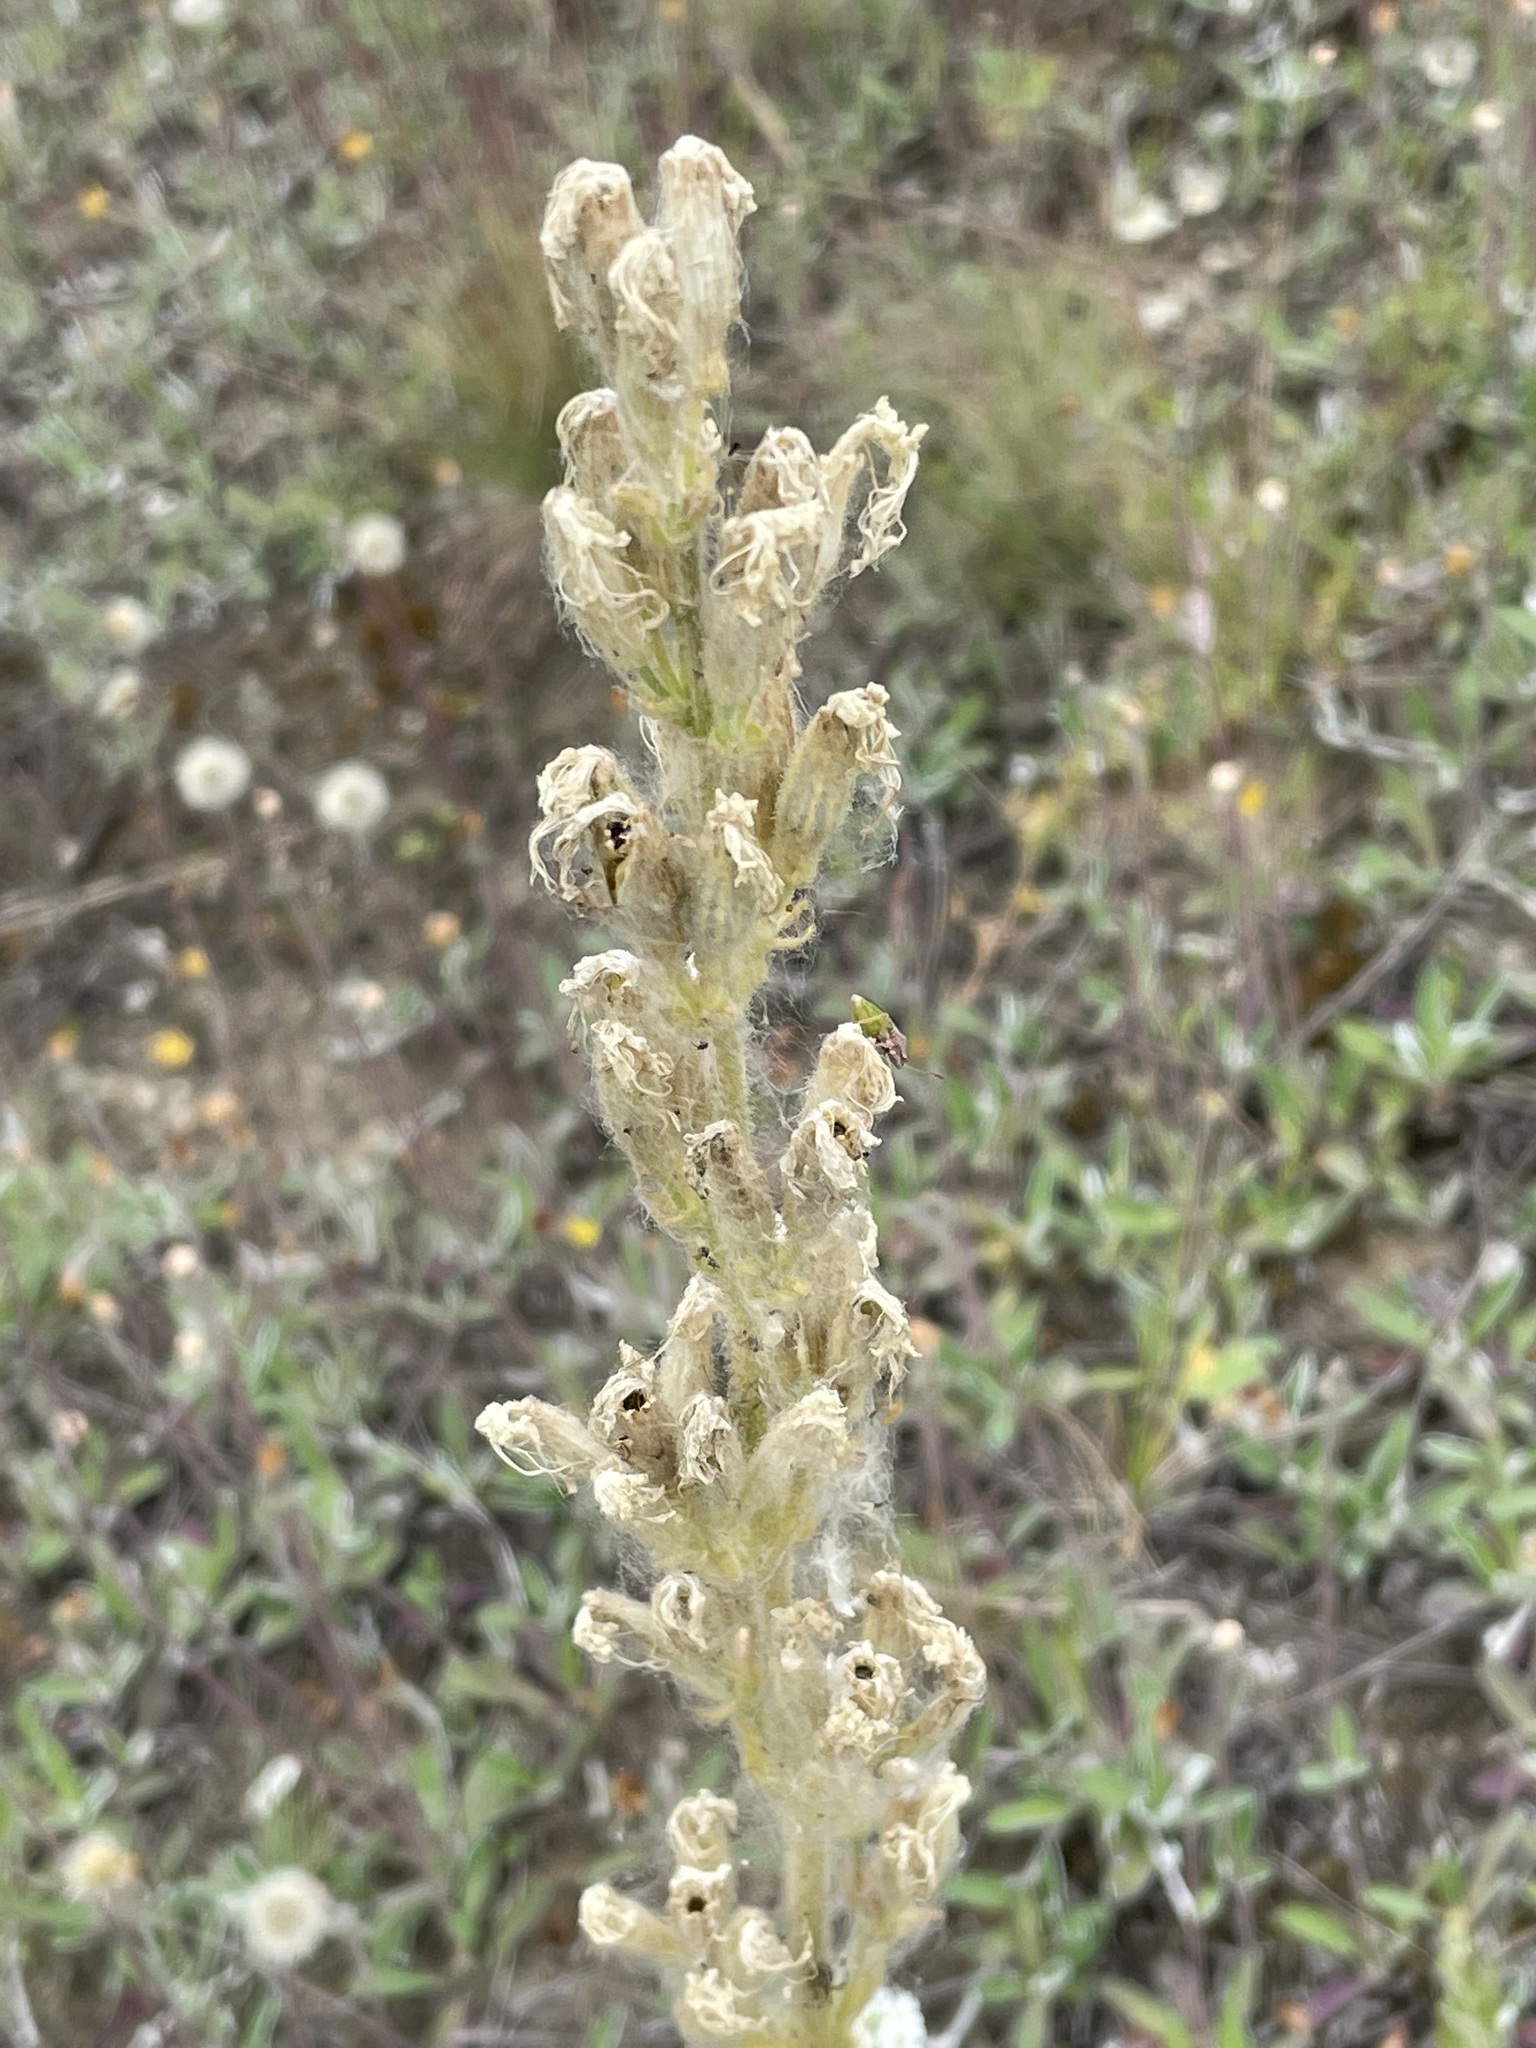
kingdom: Plantae
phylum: Tracheophyta
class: Magnoliopsida
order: Caryophyllales
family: Caryophyllaceae
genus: Silene
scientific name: Silene viscosa
